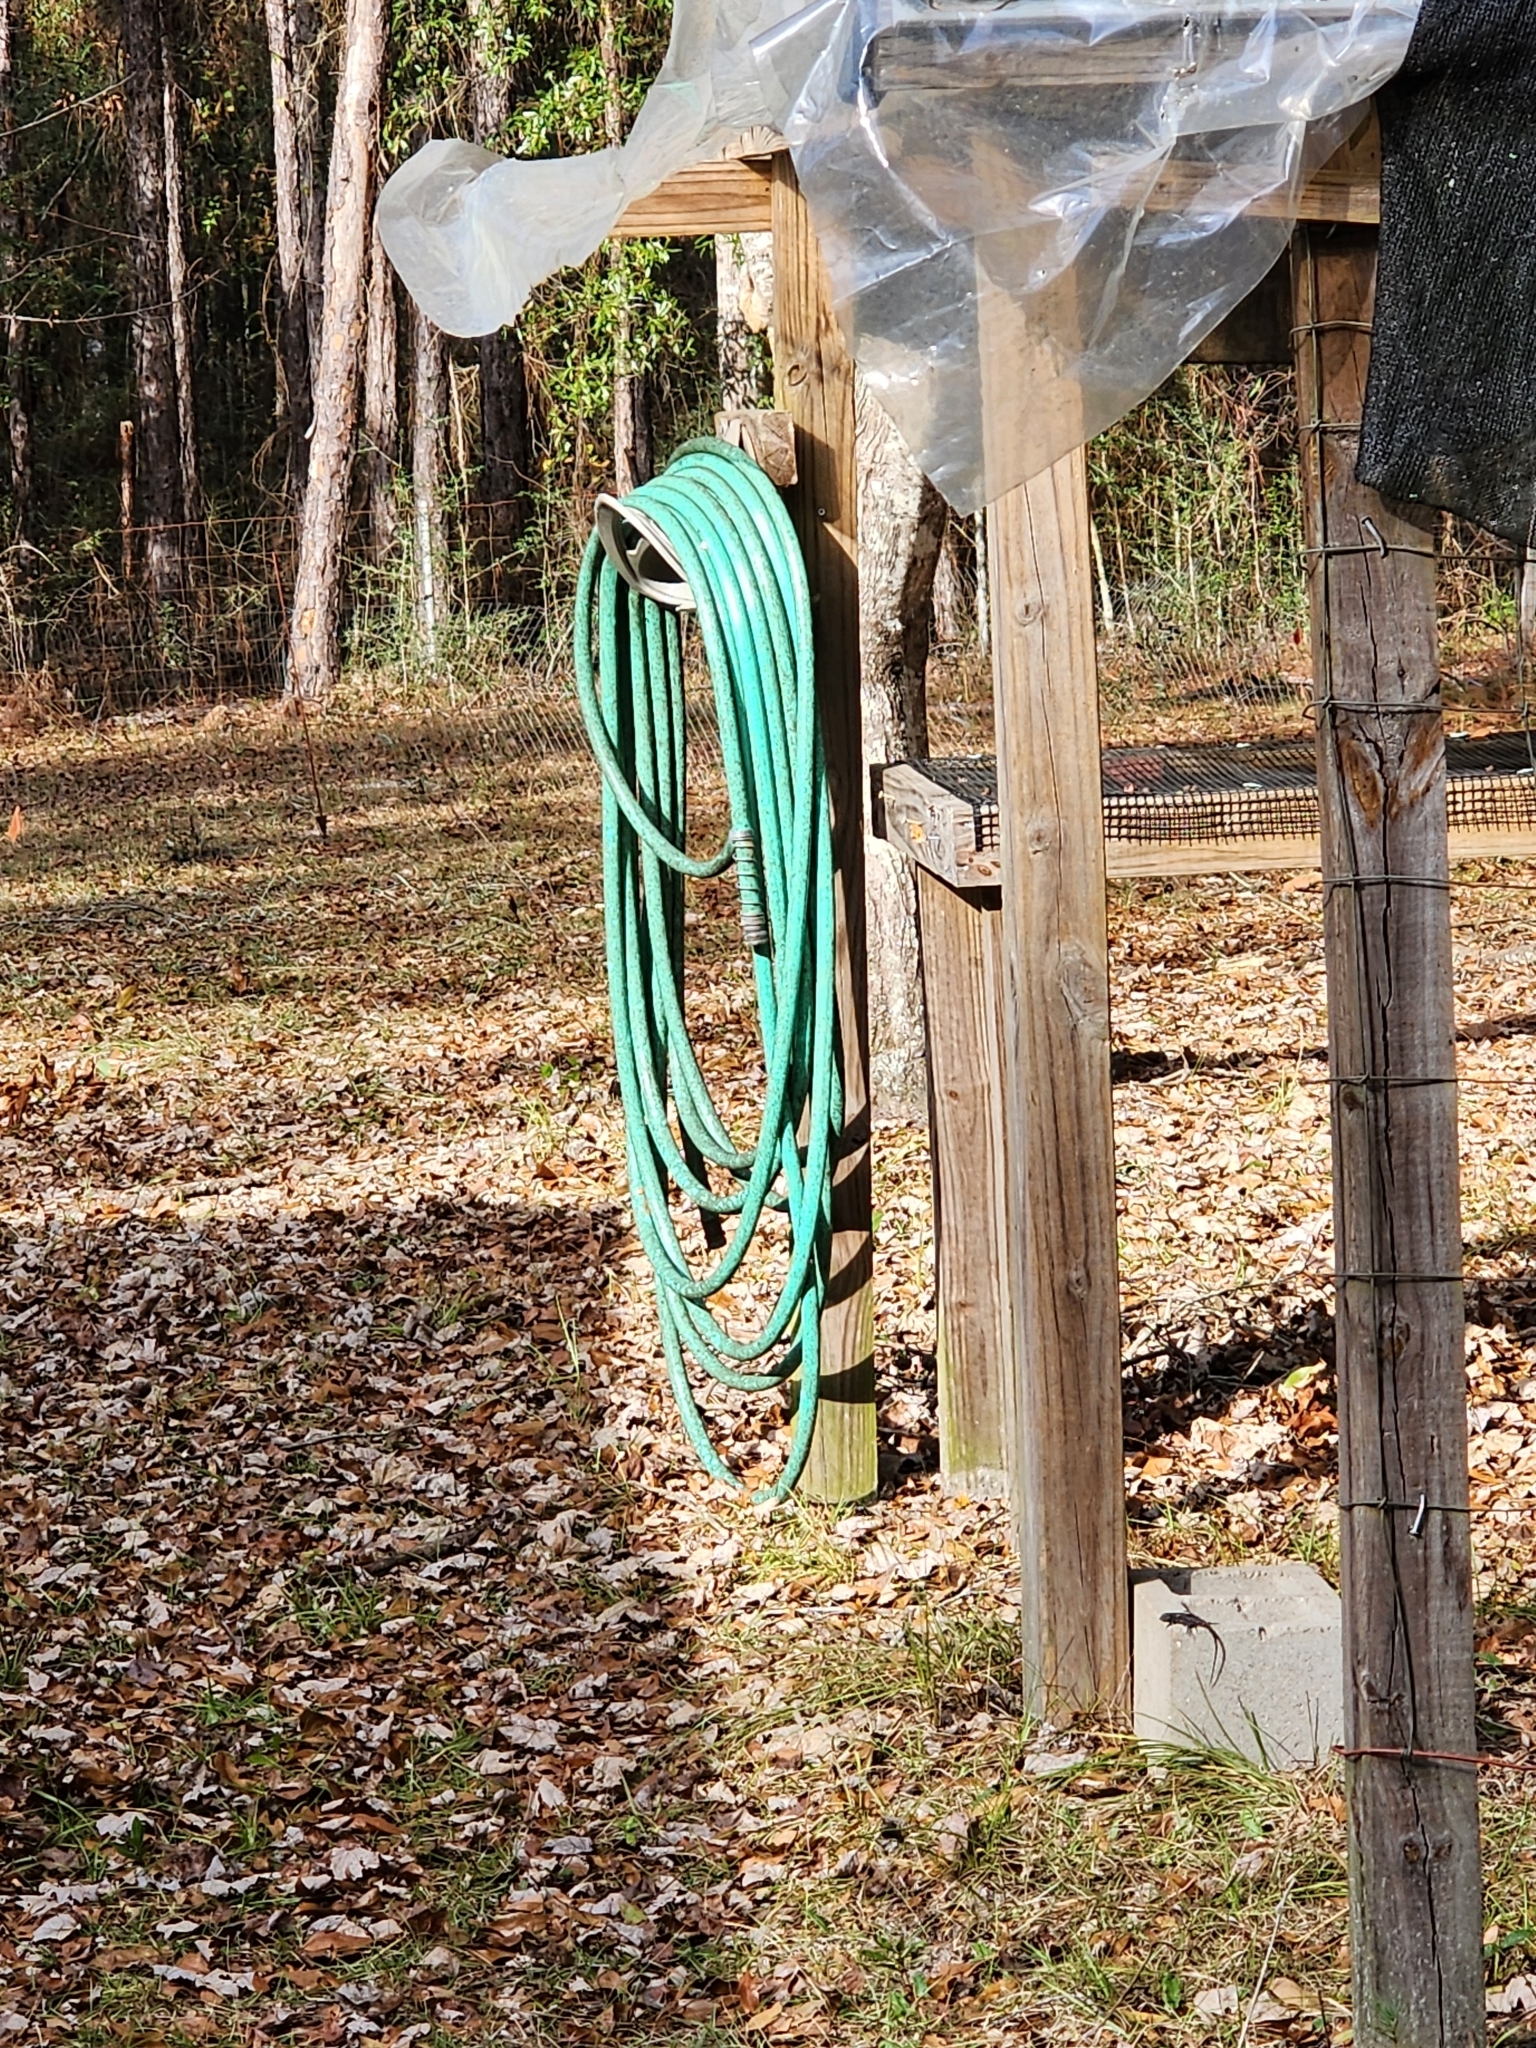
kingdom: Animalia
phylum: Chordata
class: Squamata
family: Phrynosomatidae
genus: Sceloporus
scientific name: Sceloporus undulatus
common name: Eastern fence lizard
